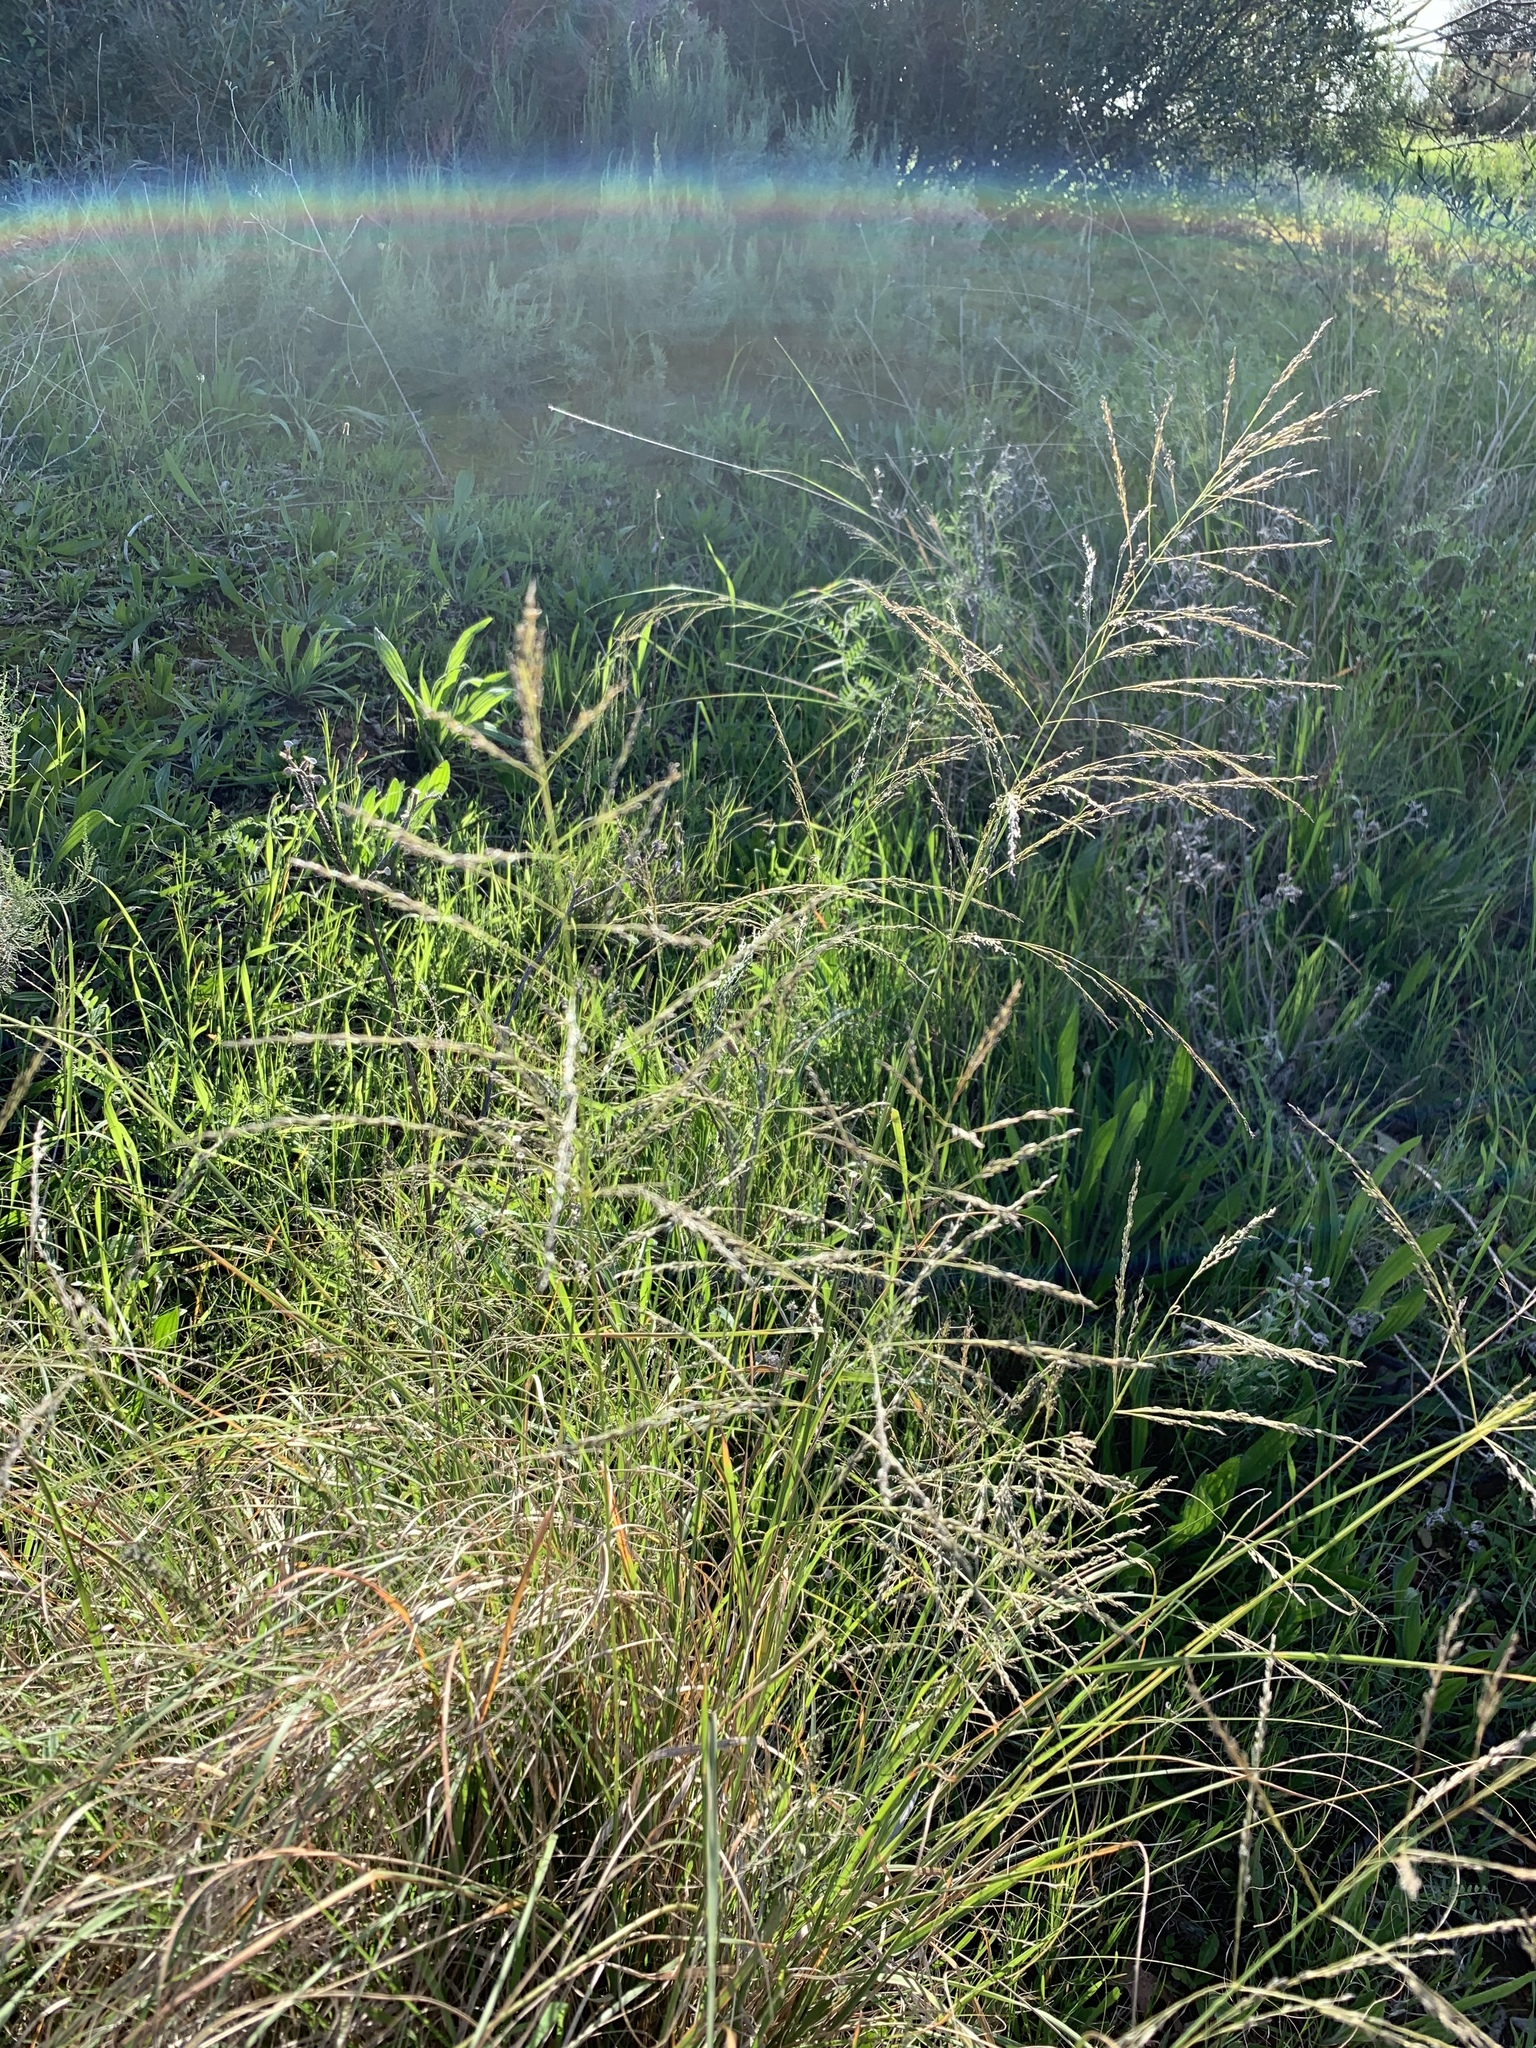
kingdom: Plantae
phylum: Tracheophyta
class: Liliopsida
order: Poales
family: Poaceae
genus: Eragrostis
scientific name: Eragrostis curvula
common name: African love-grass
